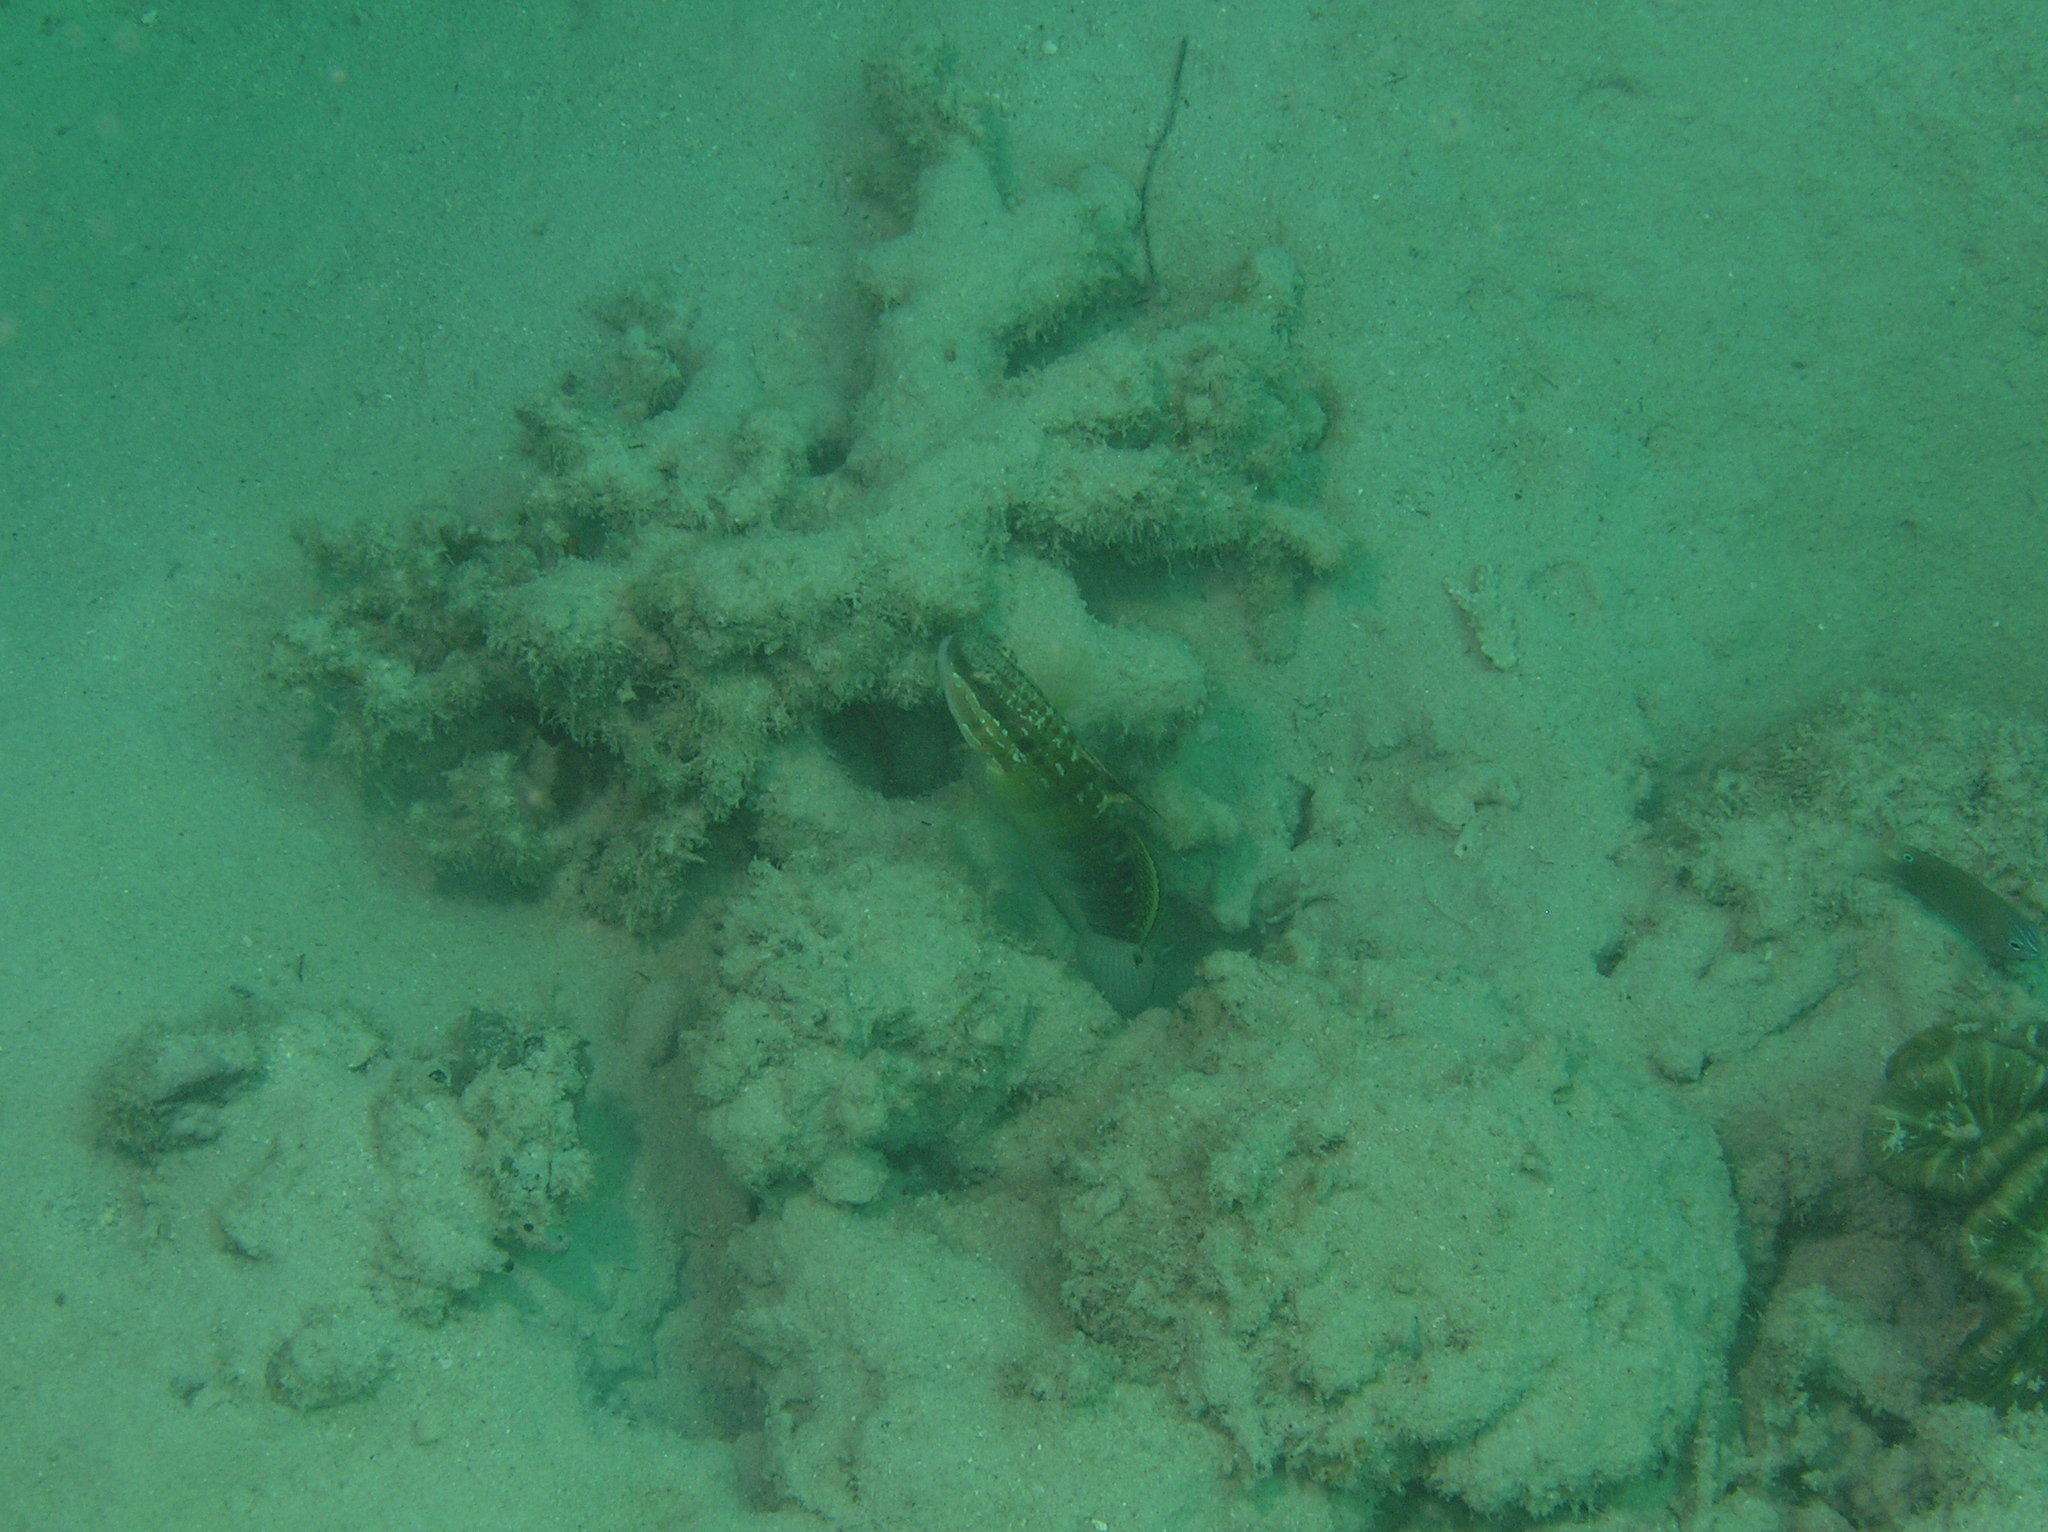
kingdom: Animalia
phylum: Chordata
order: Perciformes
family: Gobiidae
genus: Amblygobius
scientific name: Amblygobius phalaena
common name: Banded goby
